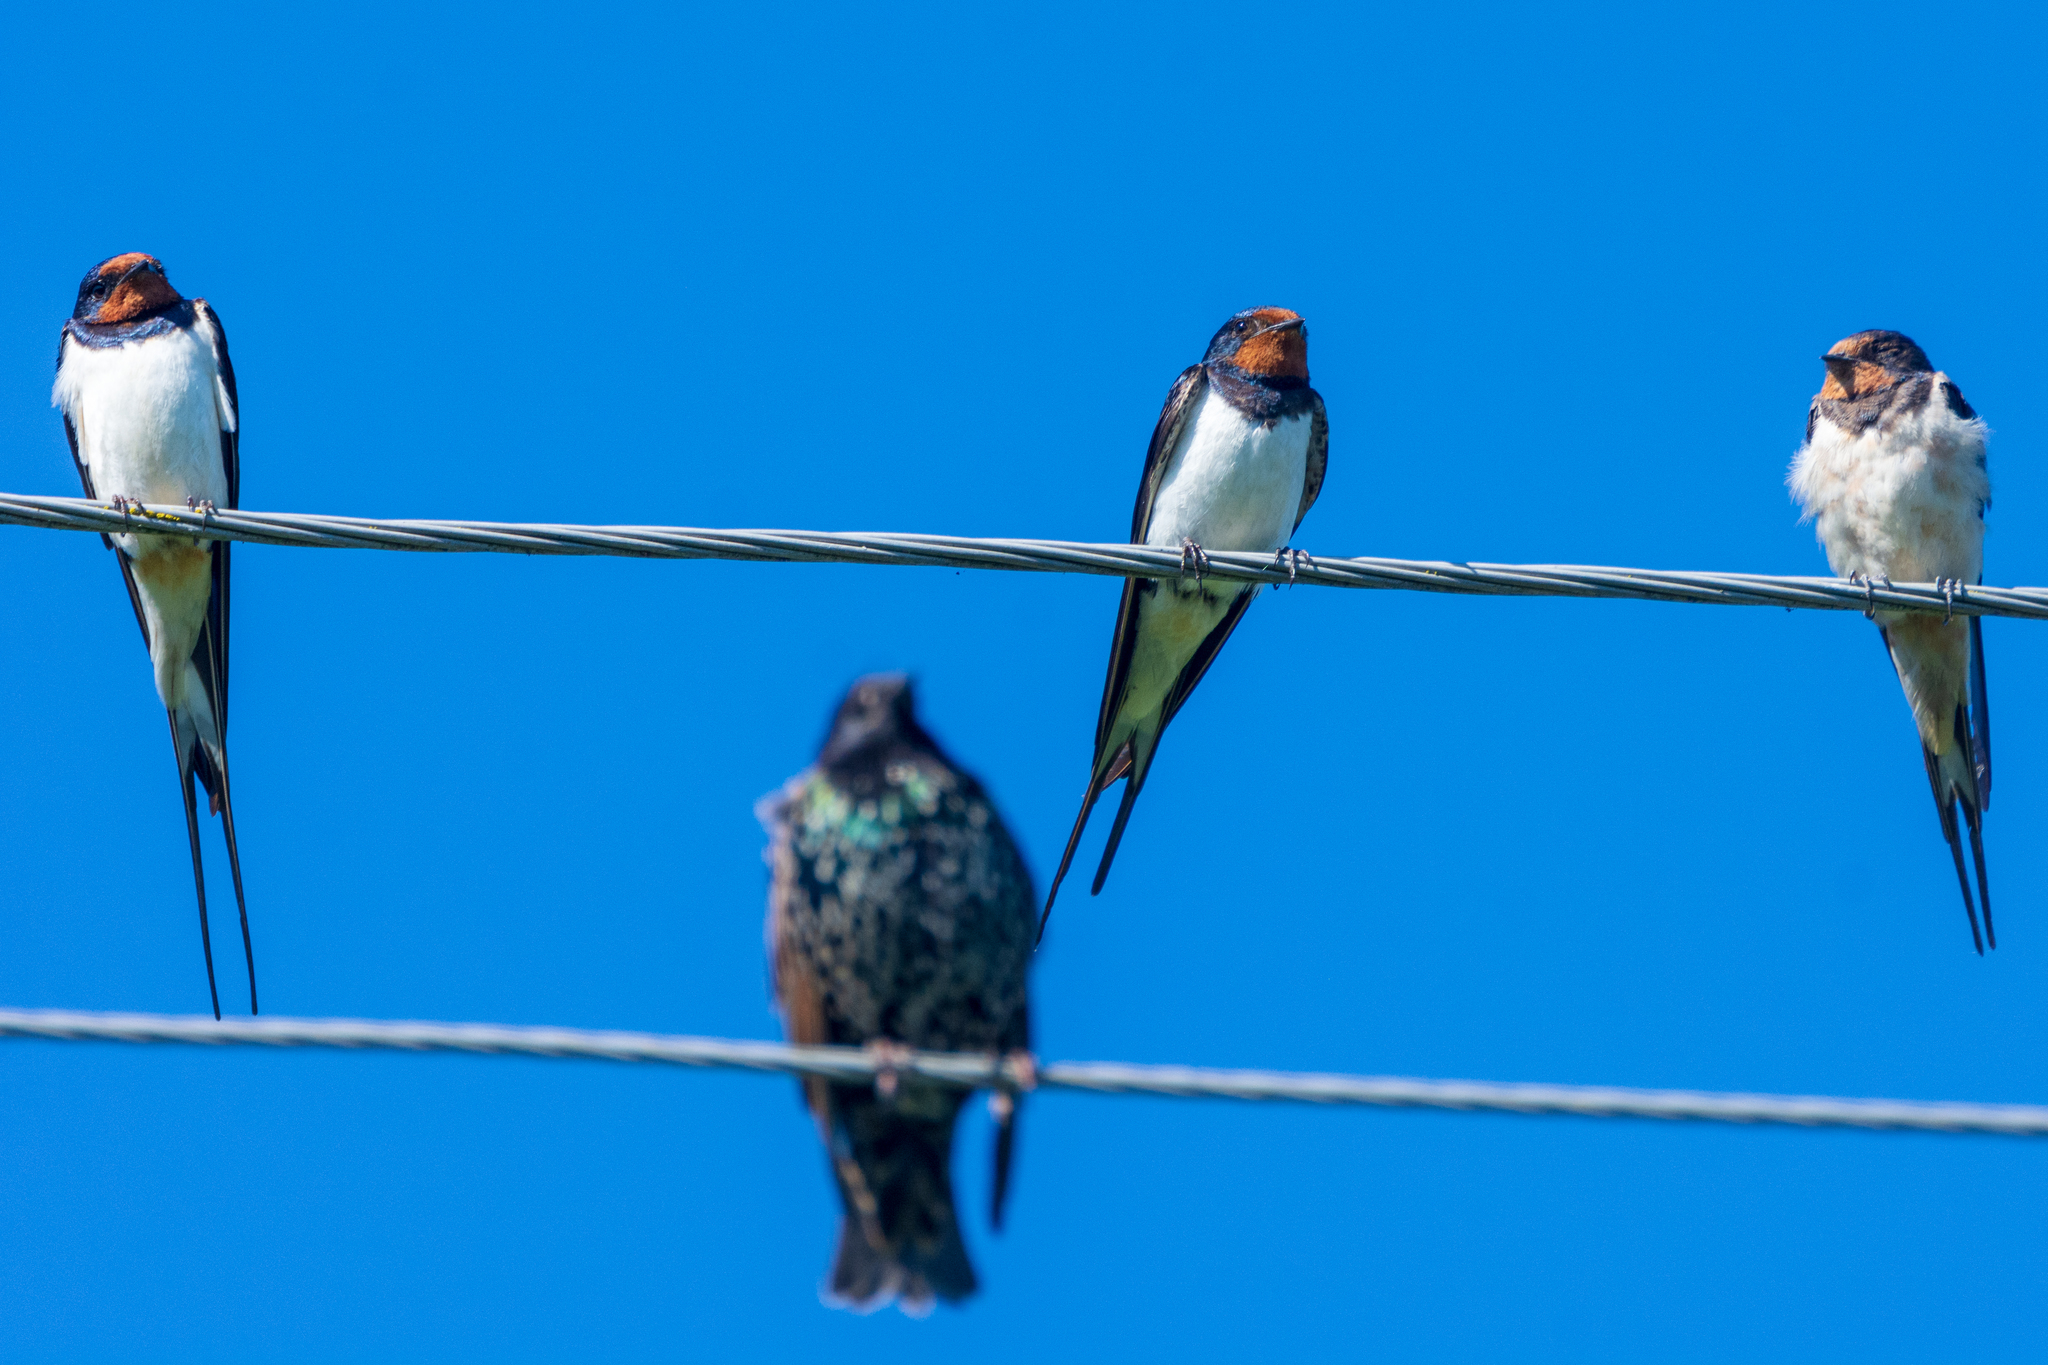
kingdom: Animalia
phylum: Chordata
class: Aves
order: Passeriformes
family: Hirundinidae
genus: Hirundo
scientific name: Hirundo rustica
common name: Barn swallow
